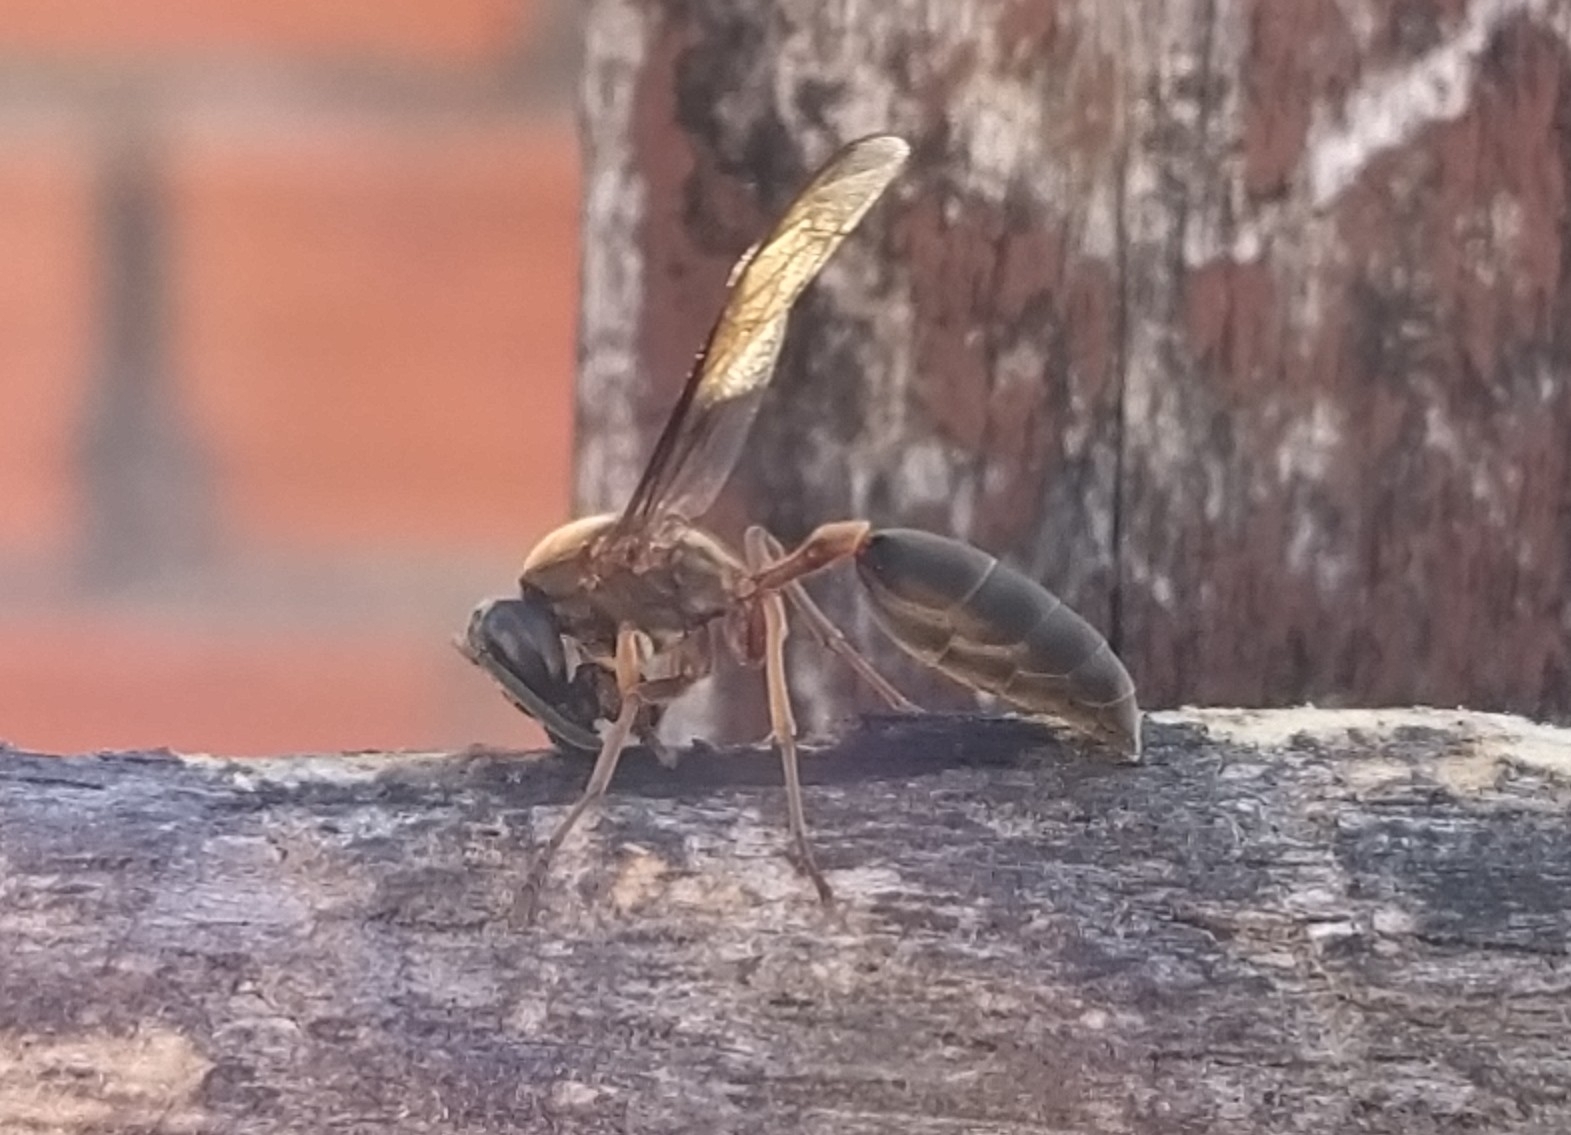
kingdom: Animalia
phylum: Arthropoda
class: Insecta
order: Hymenoptera
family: Eumenidae
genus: Polybia
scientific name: Polybia sericea
